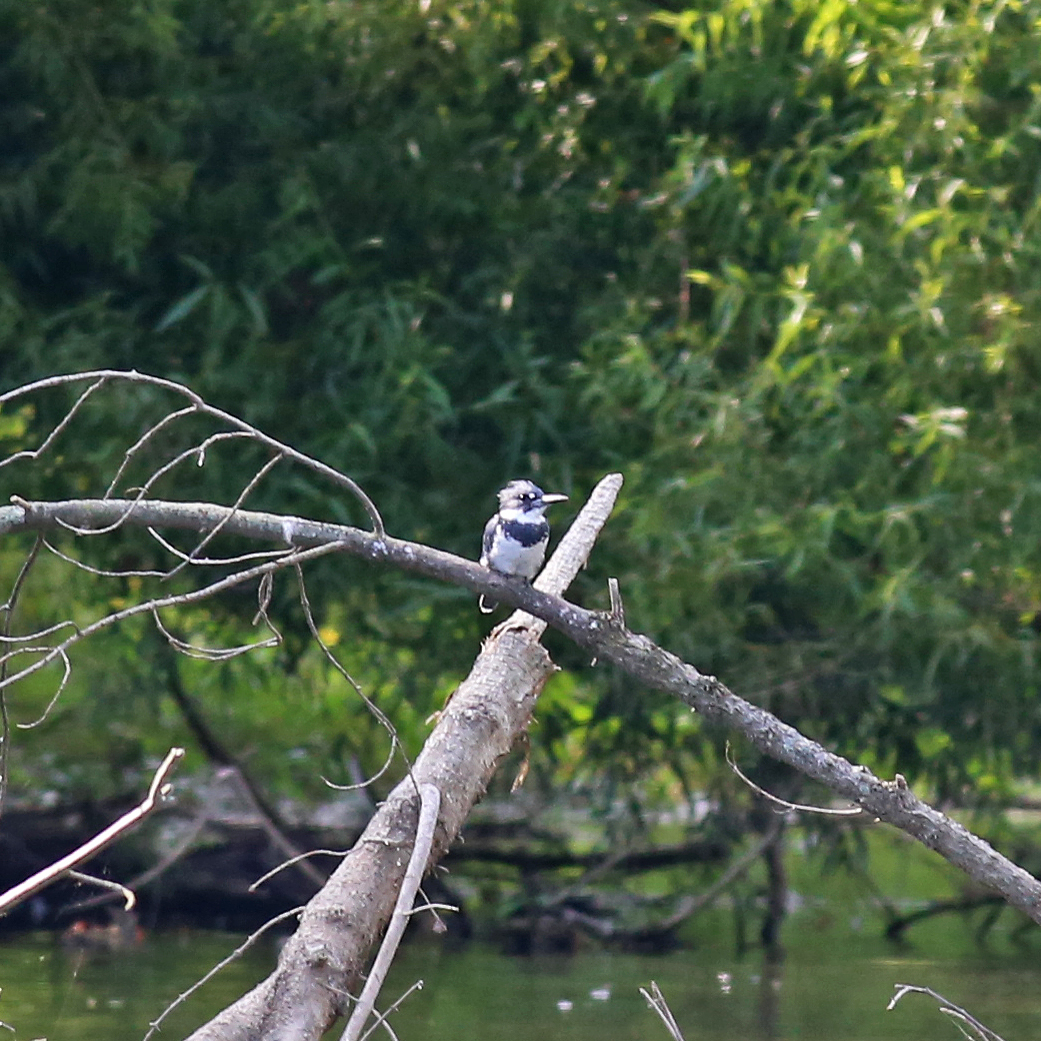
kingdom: Animalia
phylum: Chordata
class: Aves
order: Coraciiformes
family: Alcedinidae
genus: Megaceryle
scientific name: Megaceryle alcyon
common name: Belted kingfisher
